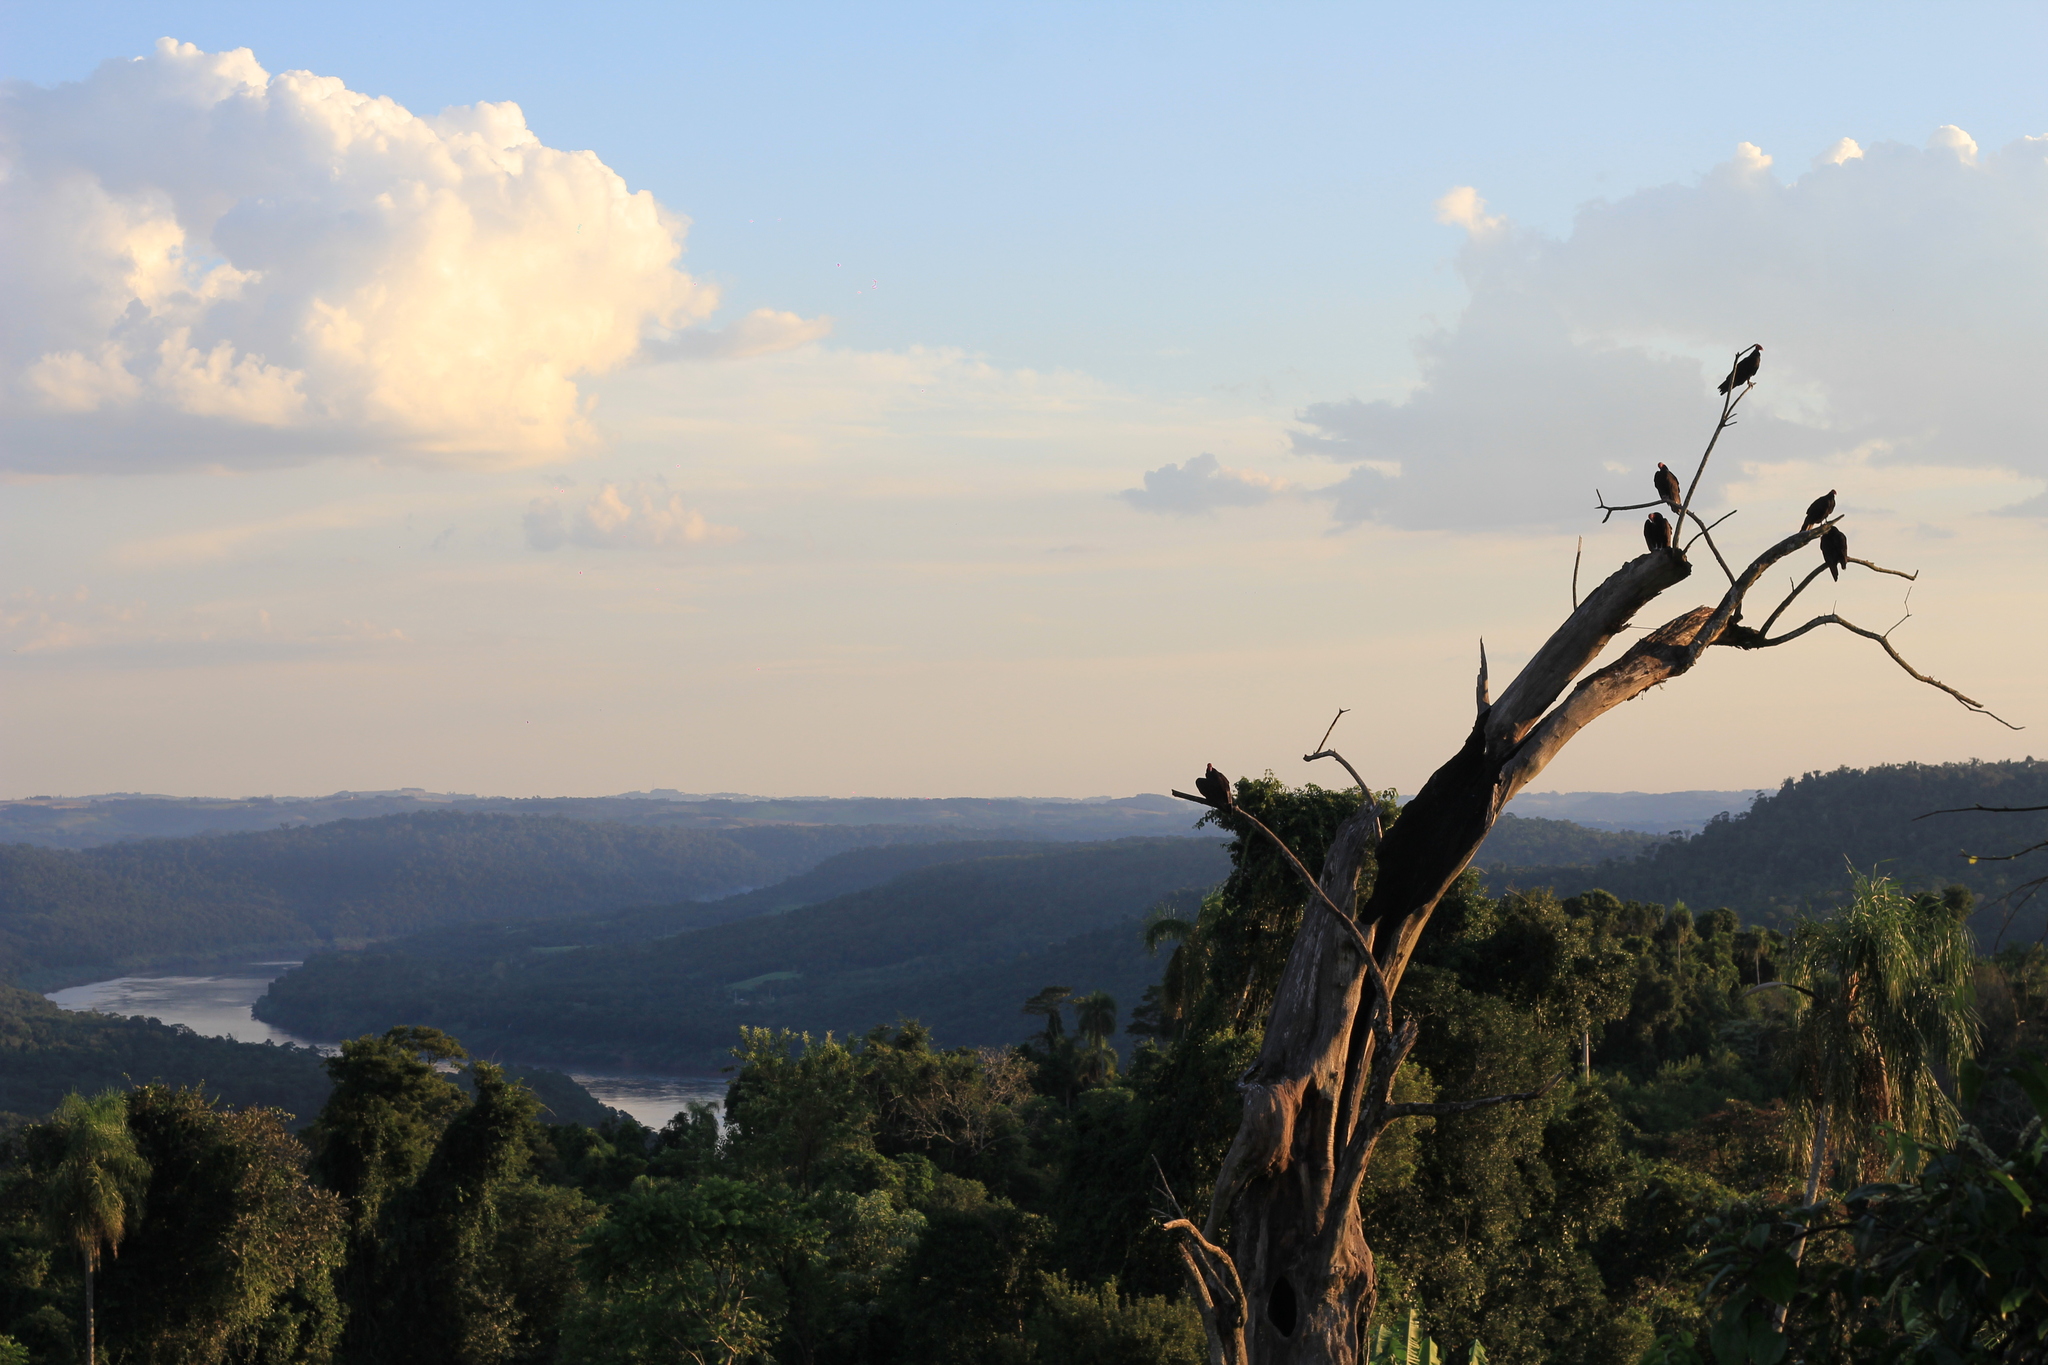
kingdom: Animalia
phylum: Chordata
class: Aves
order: Accipitriformes
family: Cathartidae
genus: Cathartes
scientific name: Cathartes aura
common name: Turkey vulture
